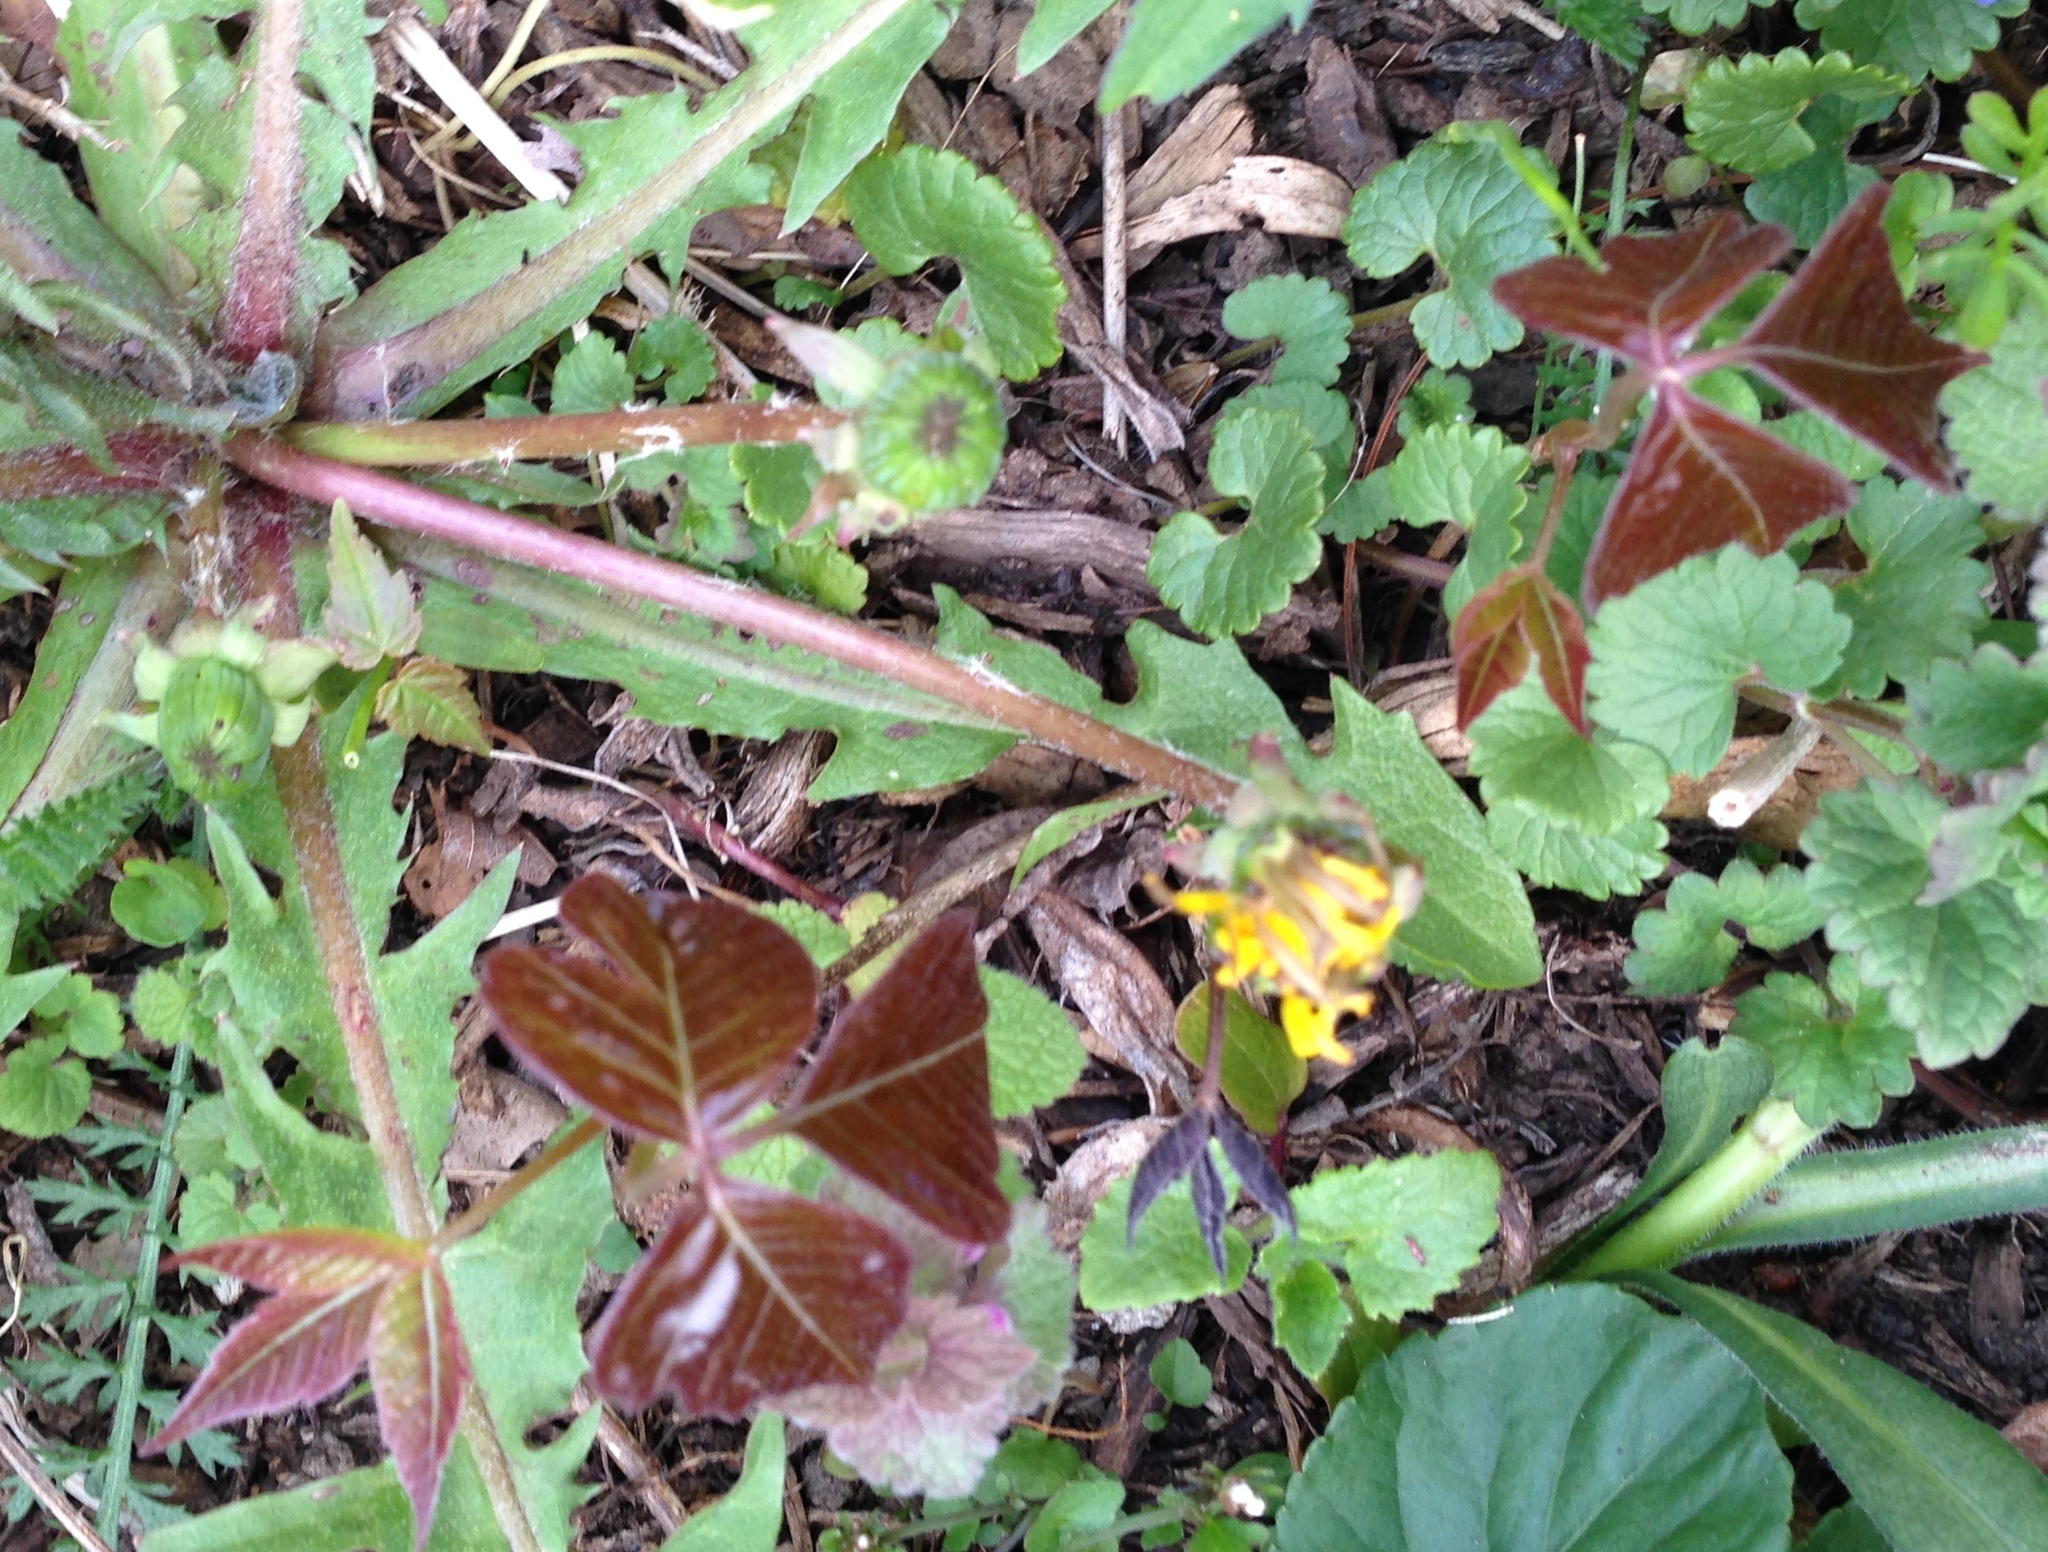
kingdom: Plantae
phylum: Tracheophyta
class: Magnoliopsida
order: Sapindales
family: Anacardiaceae
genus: Toxicodendron
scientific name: Toxicodendron radicans
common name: Poison ivy
